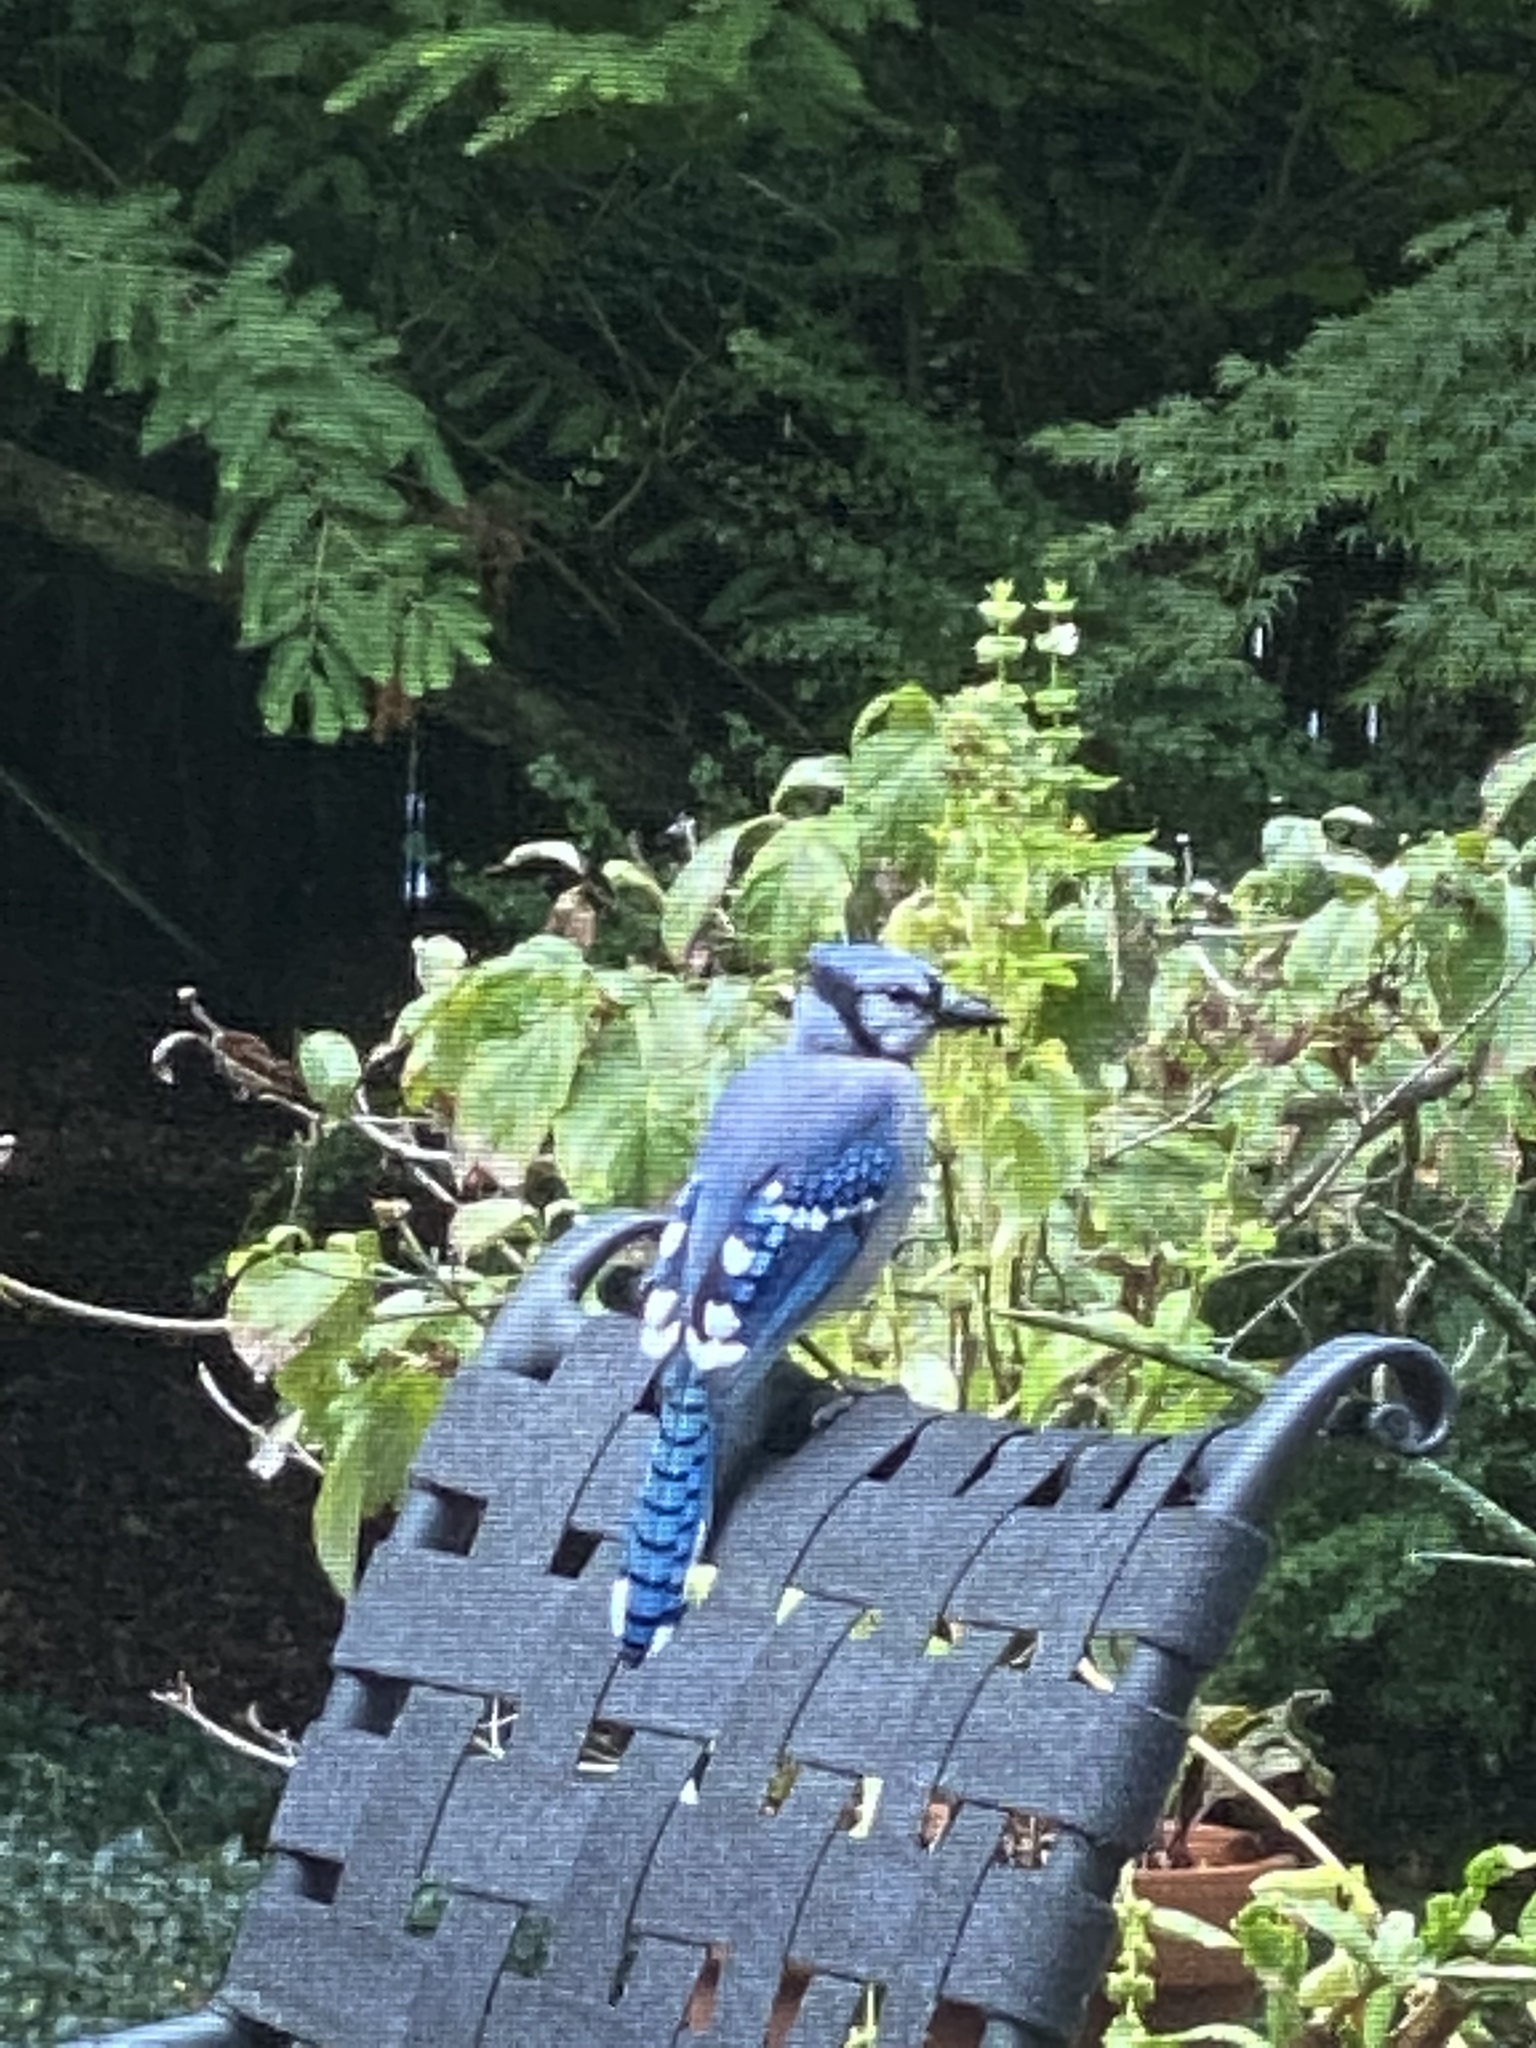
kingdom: Animalia
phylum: Chordata
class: Aves
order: Passeriformes
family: Corvidae
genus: Cyanocitta
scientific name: Cyanocitta cristata
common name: Blue jay
